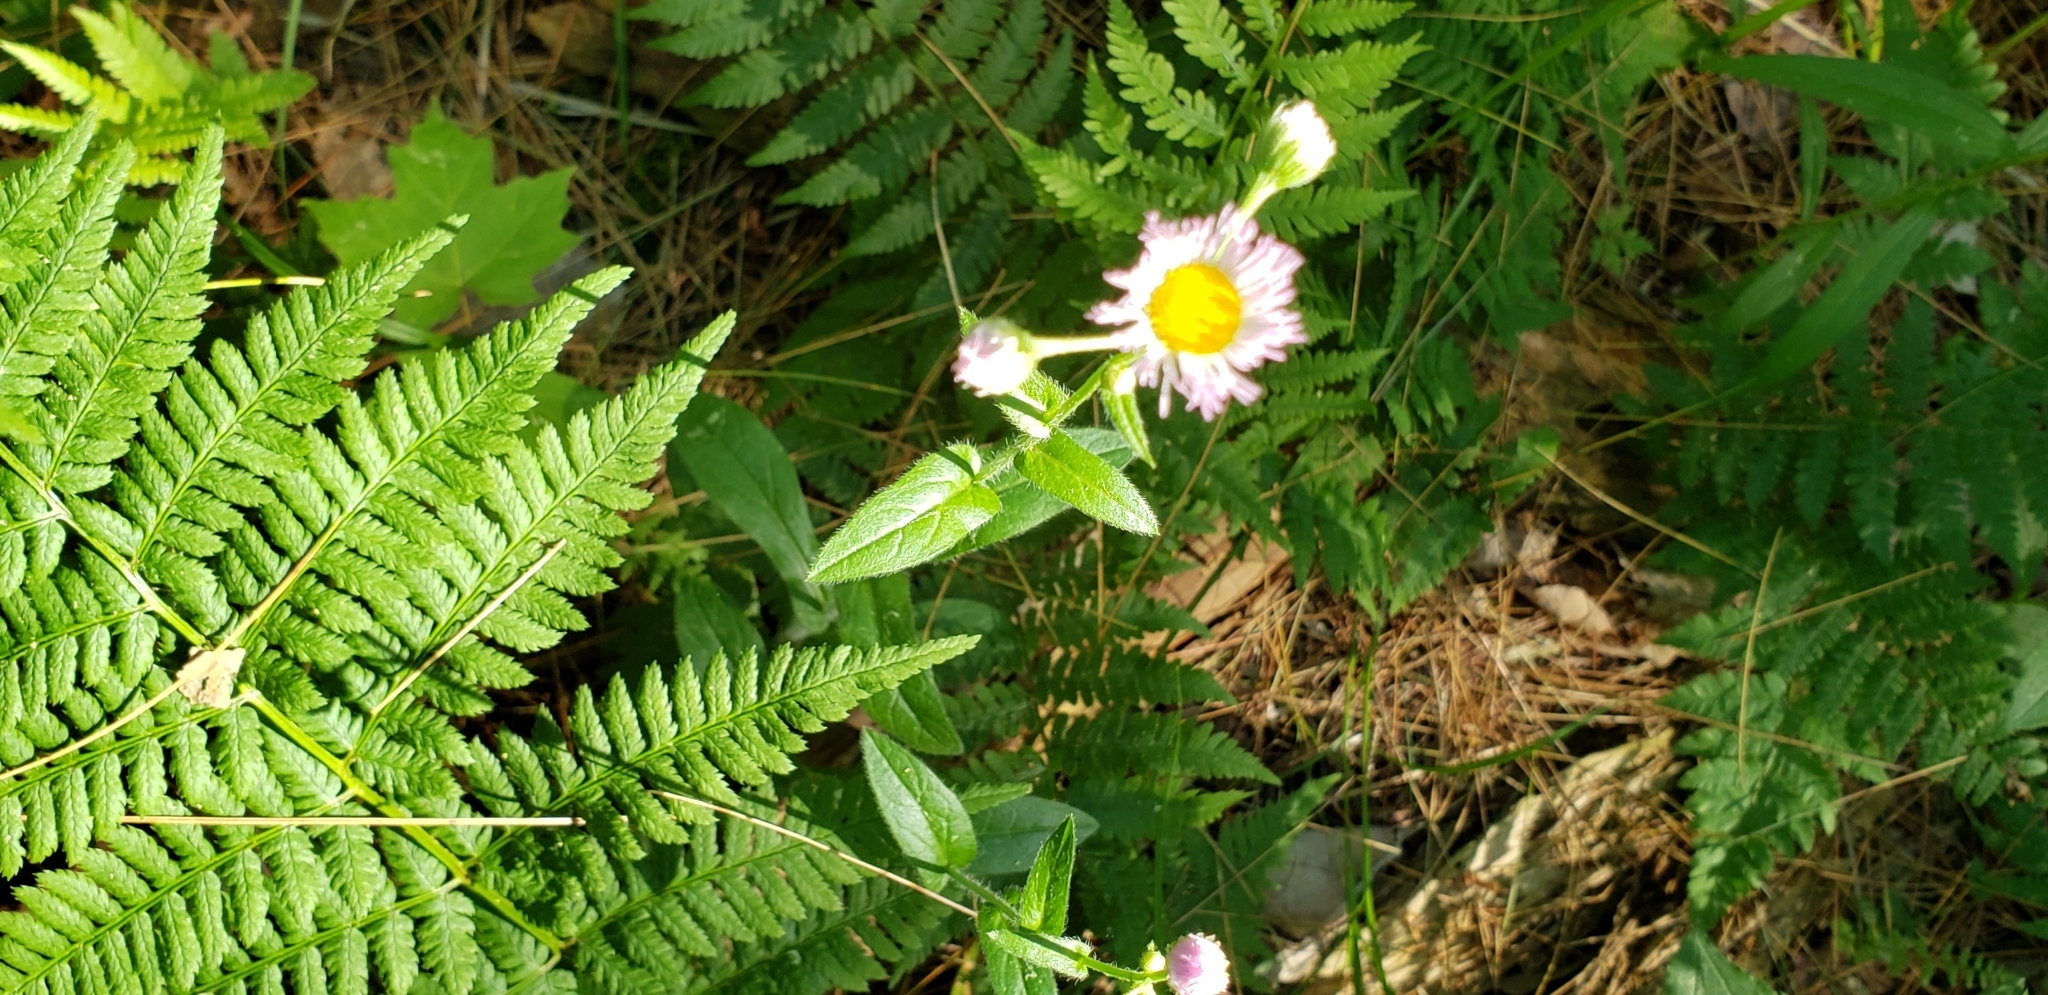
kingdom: Plantae
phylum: Tracheophyta
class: Magnoliopsida
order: Asterales
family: Asteraceae
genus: Erigeron
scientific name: Erigeron philadelphicus
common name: Robin's-plantain
